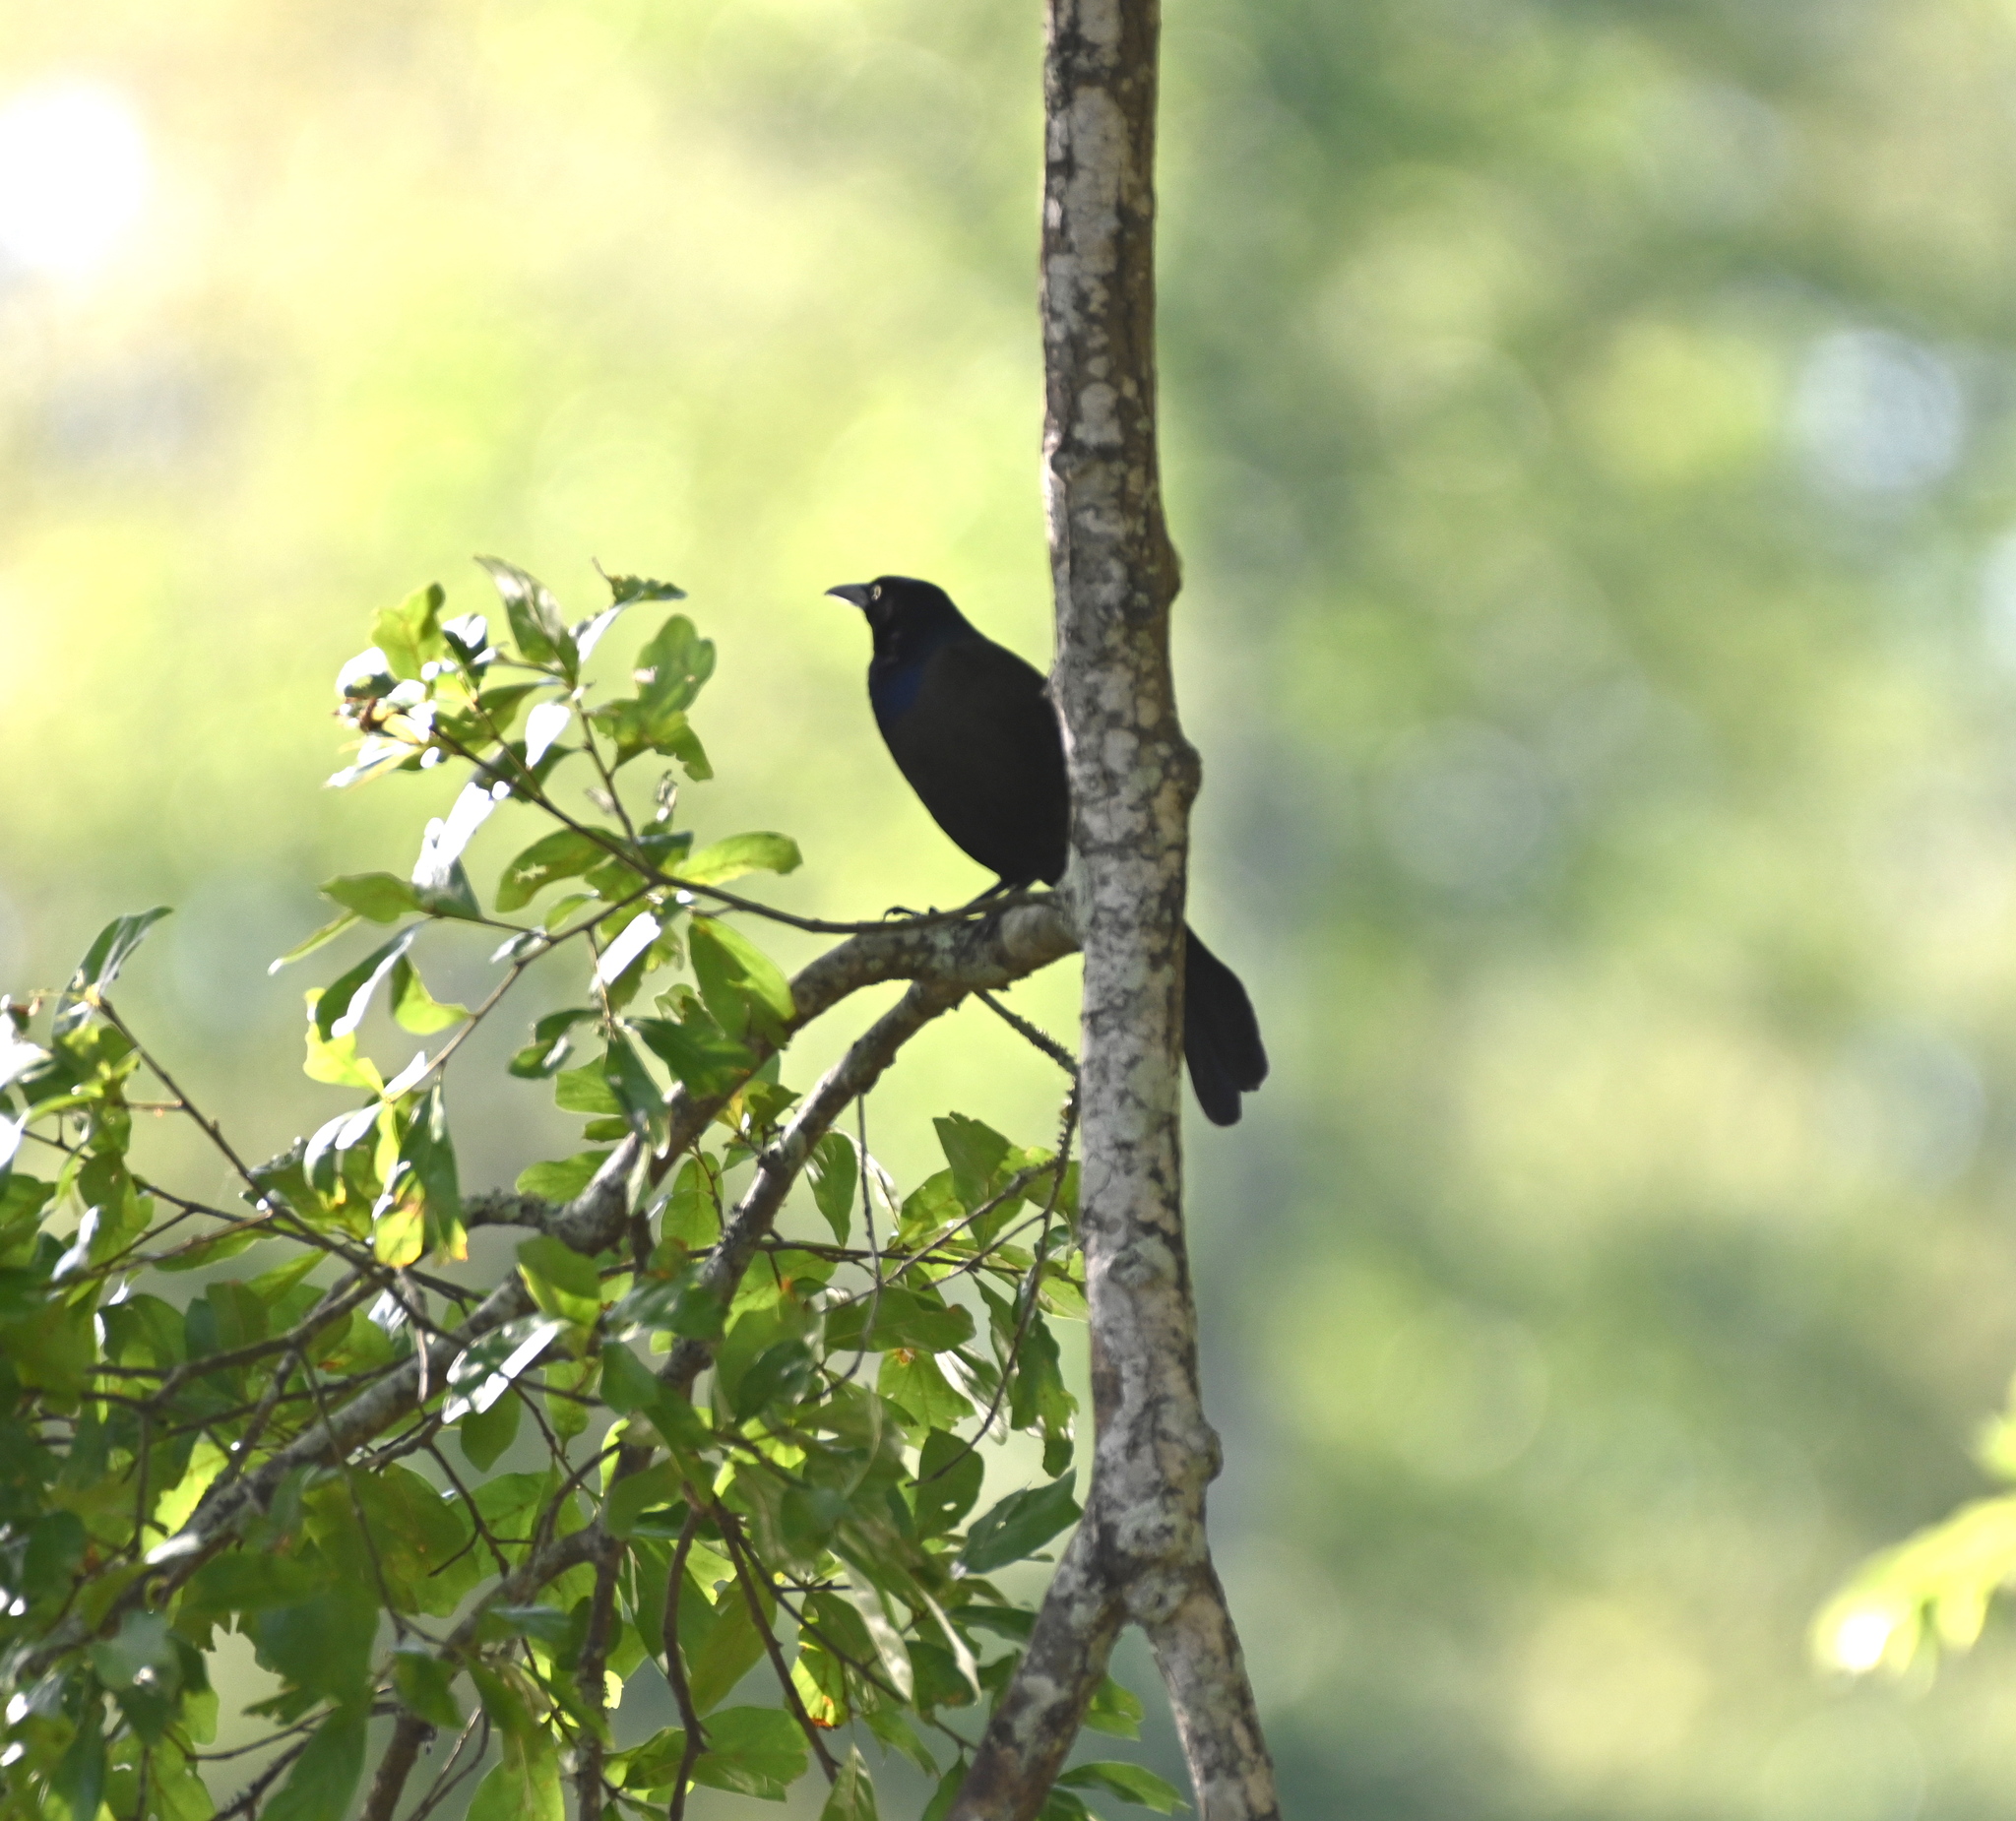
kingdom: Animalia
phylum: Chordata
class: Aves
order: Passeriformes
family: Icteridae
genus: Quiscalus
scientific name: Quiscalus quiscula
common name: Common grackle
